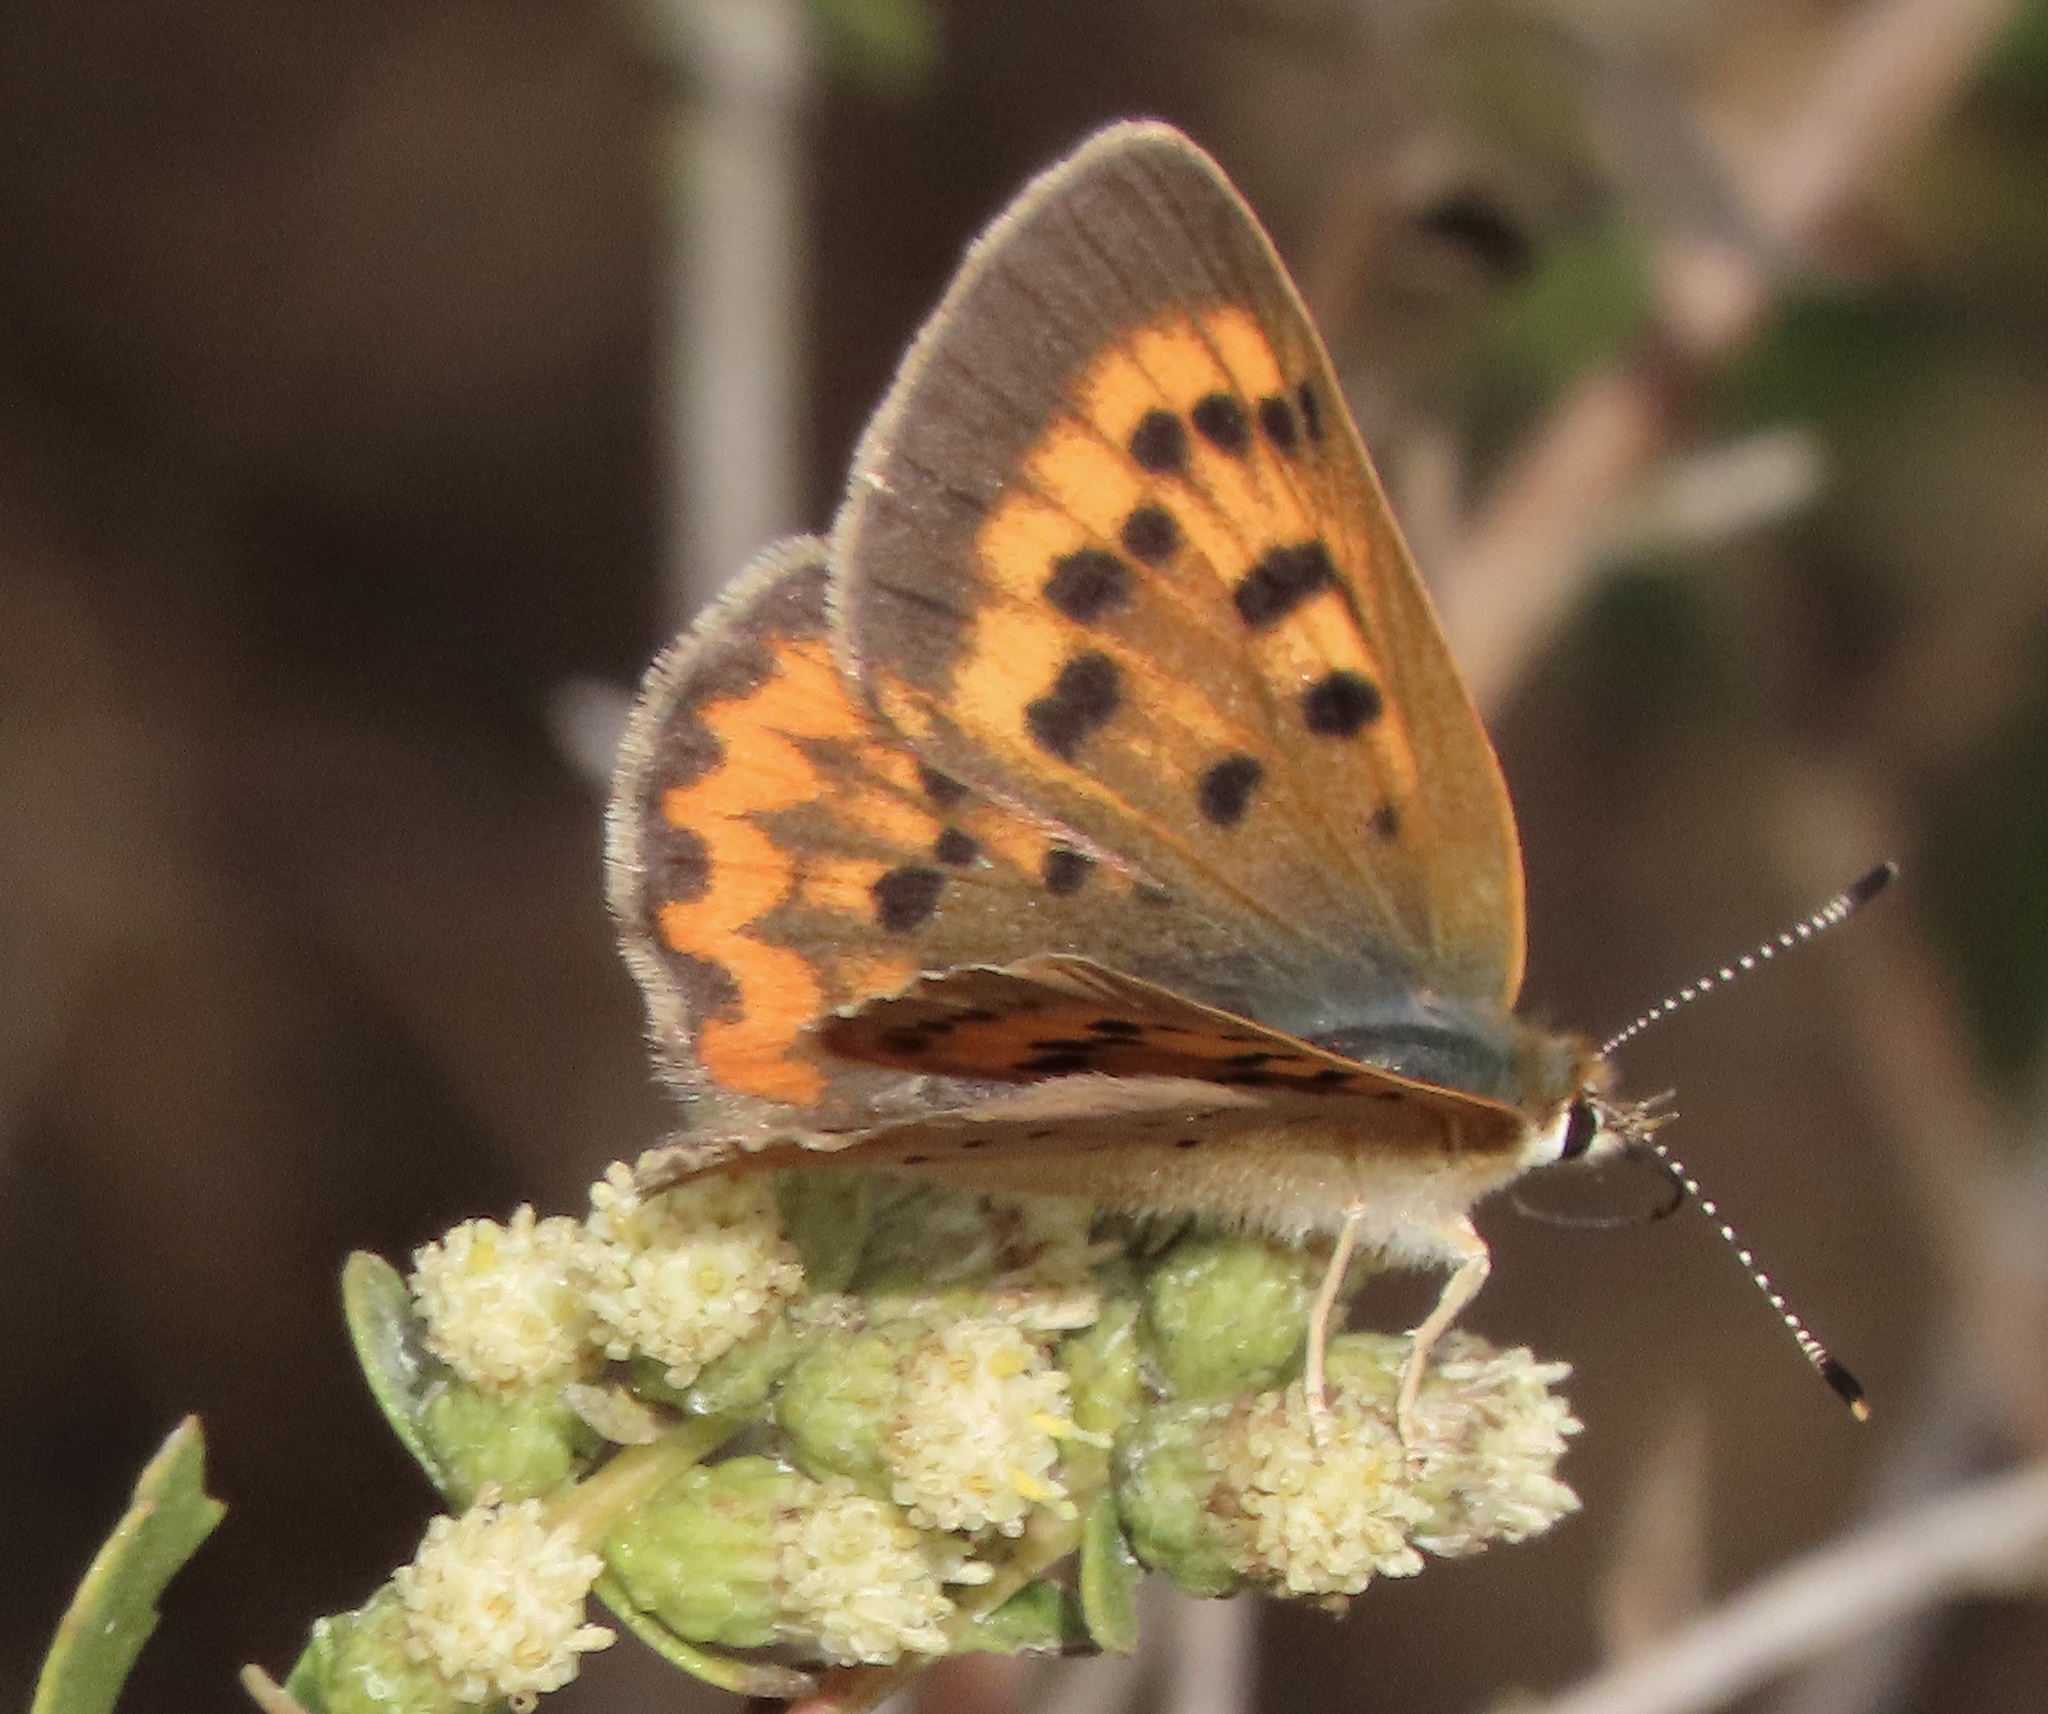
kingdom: Animalia
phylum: Arthropoda
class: Insecta
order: Lepidoptera
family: Lycaenidae
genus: Tharsalea
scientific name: Tharsalea helloides
